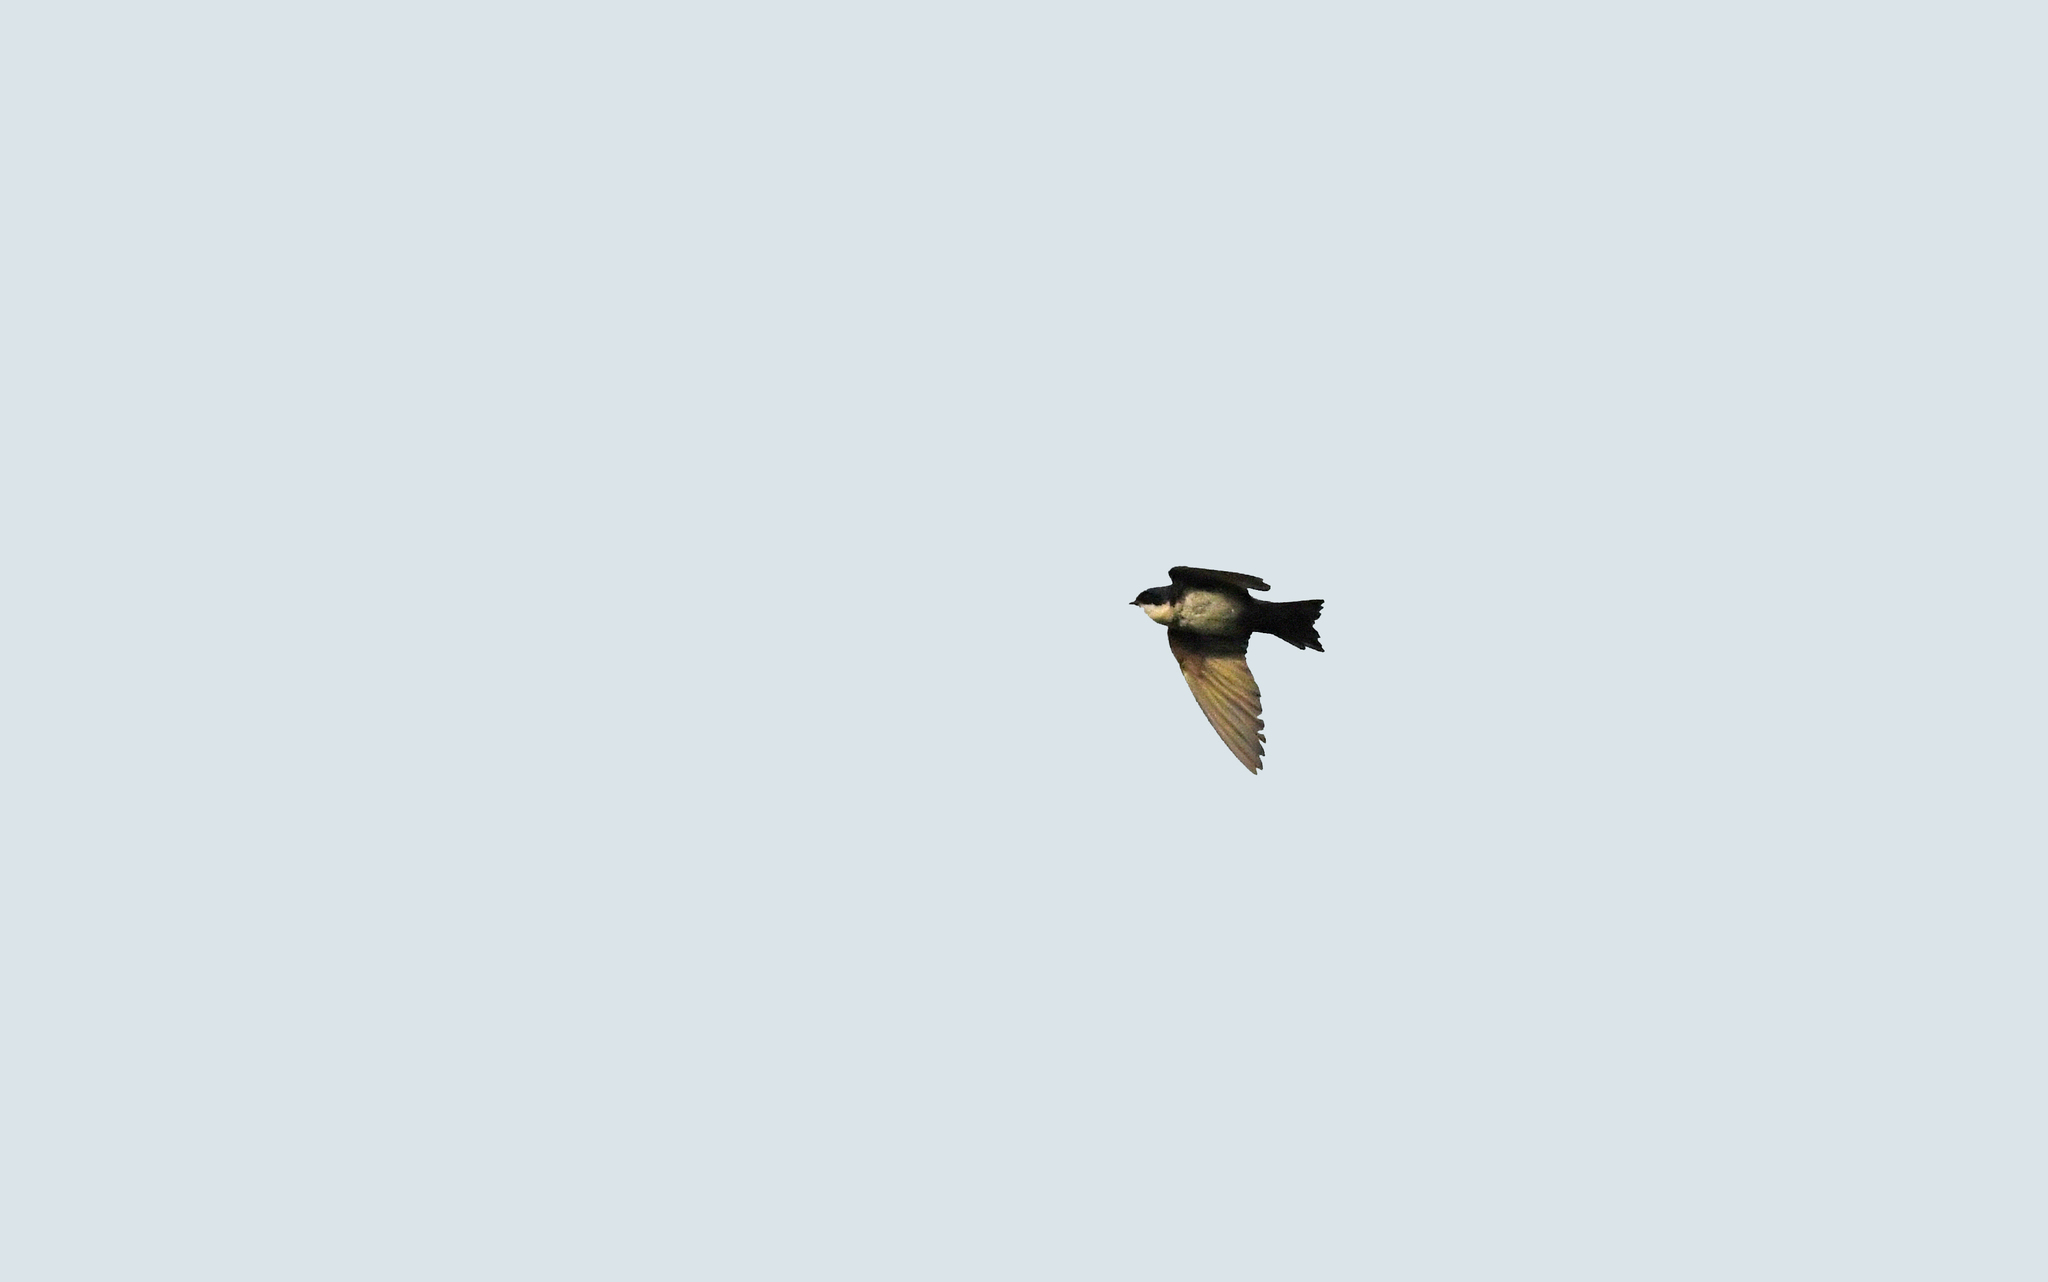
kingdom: Animalia
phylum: Chordata
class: Aves
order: Passeriformes
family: Hirundinidae
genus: Notiochelidon
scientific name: Notiochelidon cyanoleuca
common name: Blue-and-white swallow
